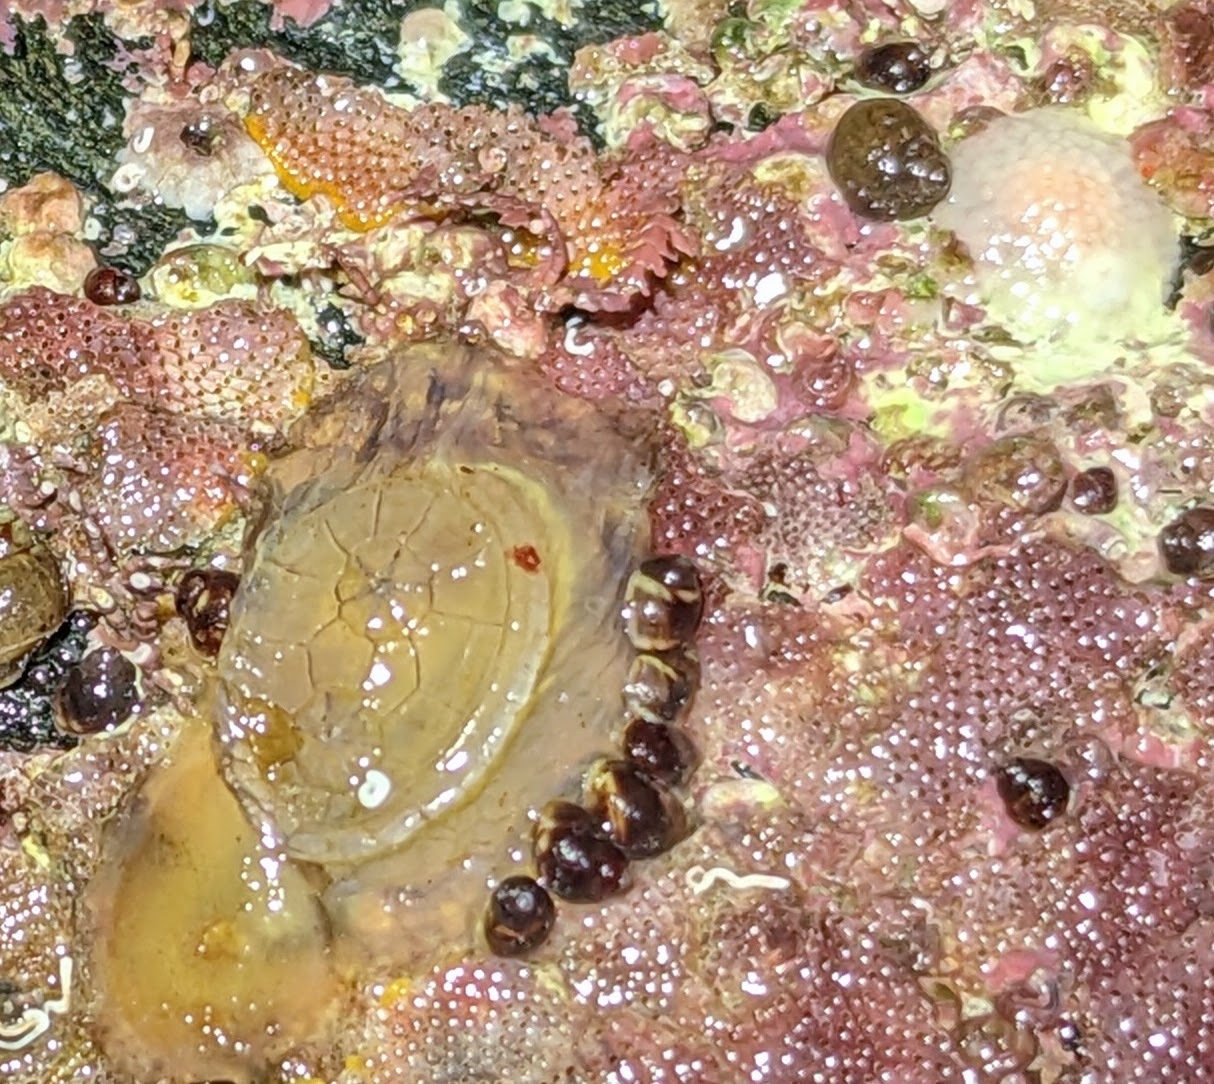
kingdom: Animalia
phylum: Chordata
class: Ascidiacea
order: Phlebobranchia
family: Corellidae
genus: Chelyosoma
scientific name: Chelyosoma productum
